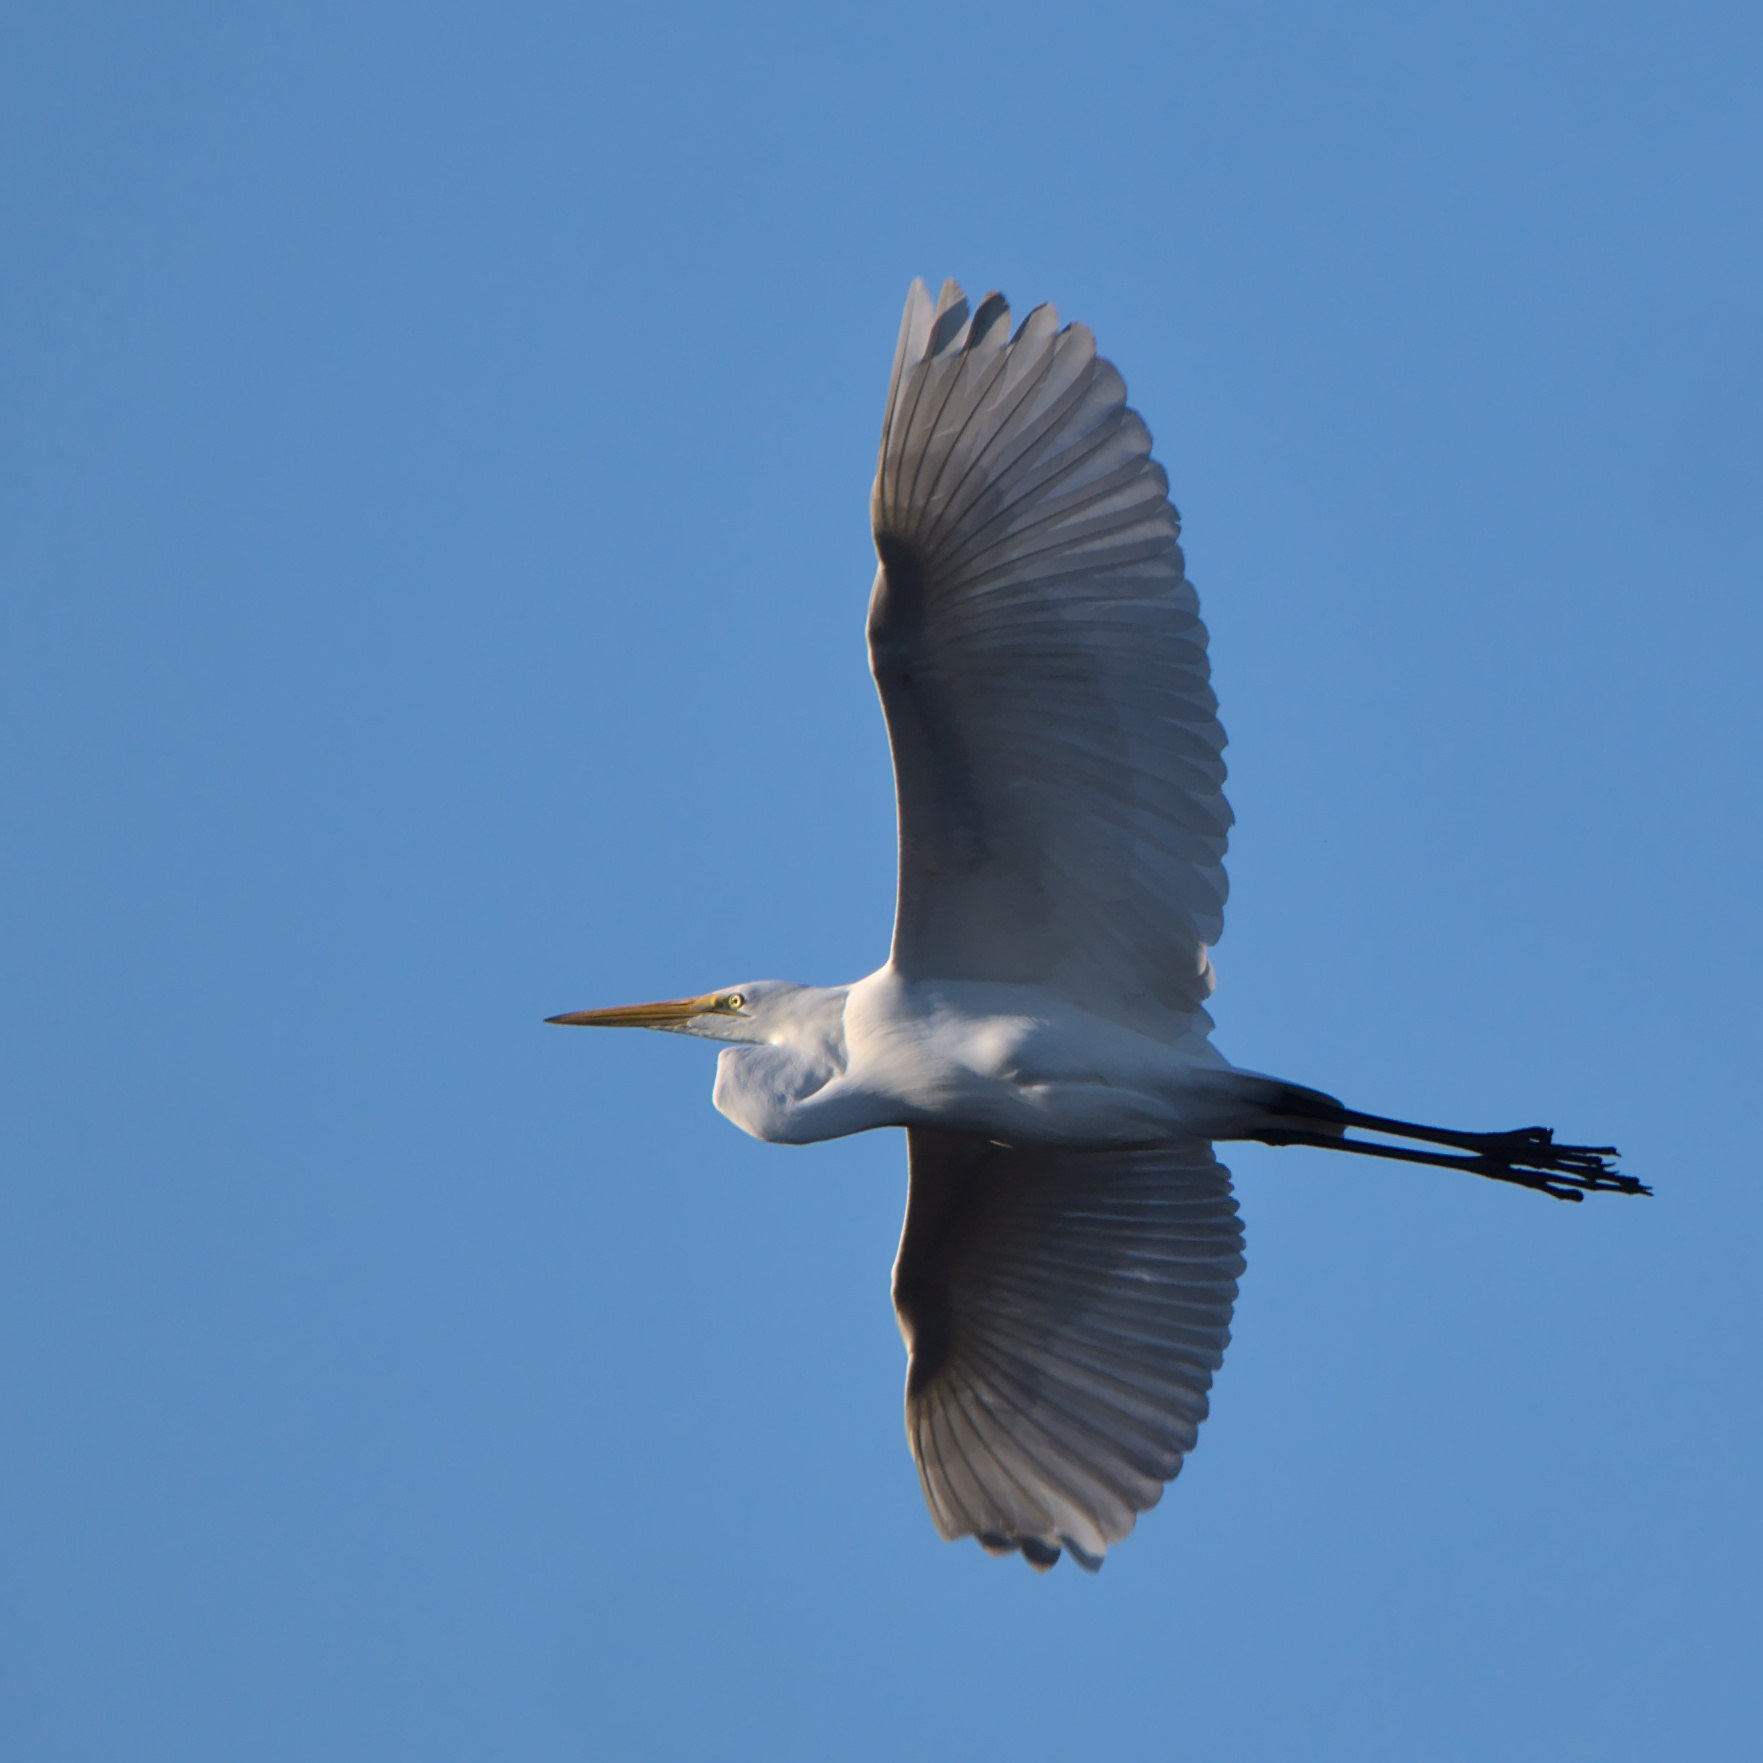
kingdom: Animalia
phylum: Chordata
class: Aves
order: Pelecaniformes
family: Ardeidae
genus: Ardea
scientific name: Ardea alba
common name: Great egret
